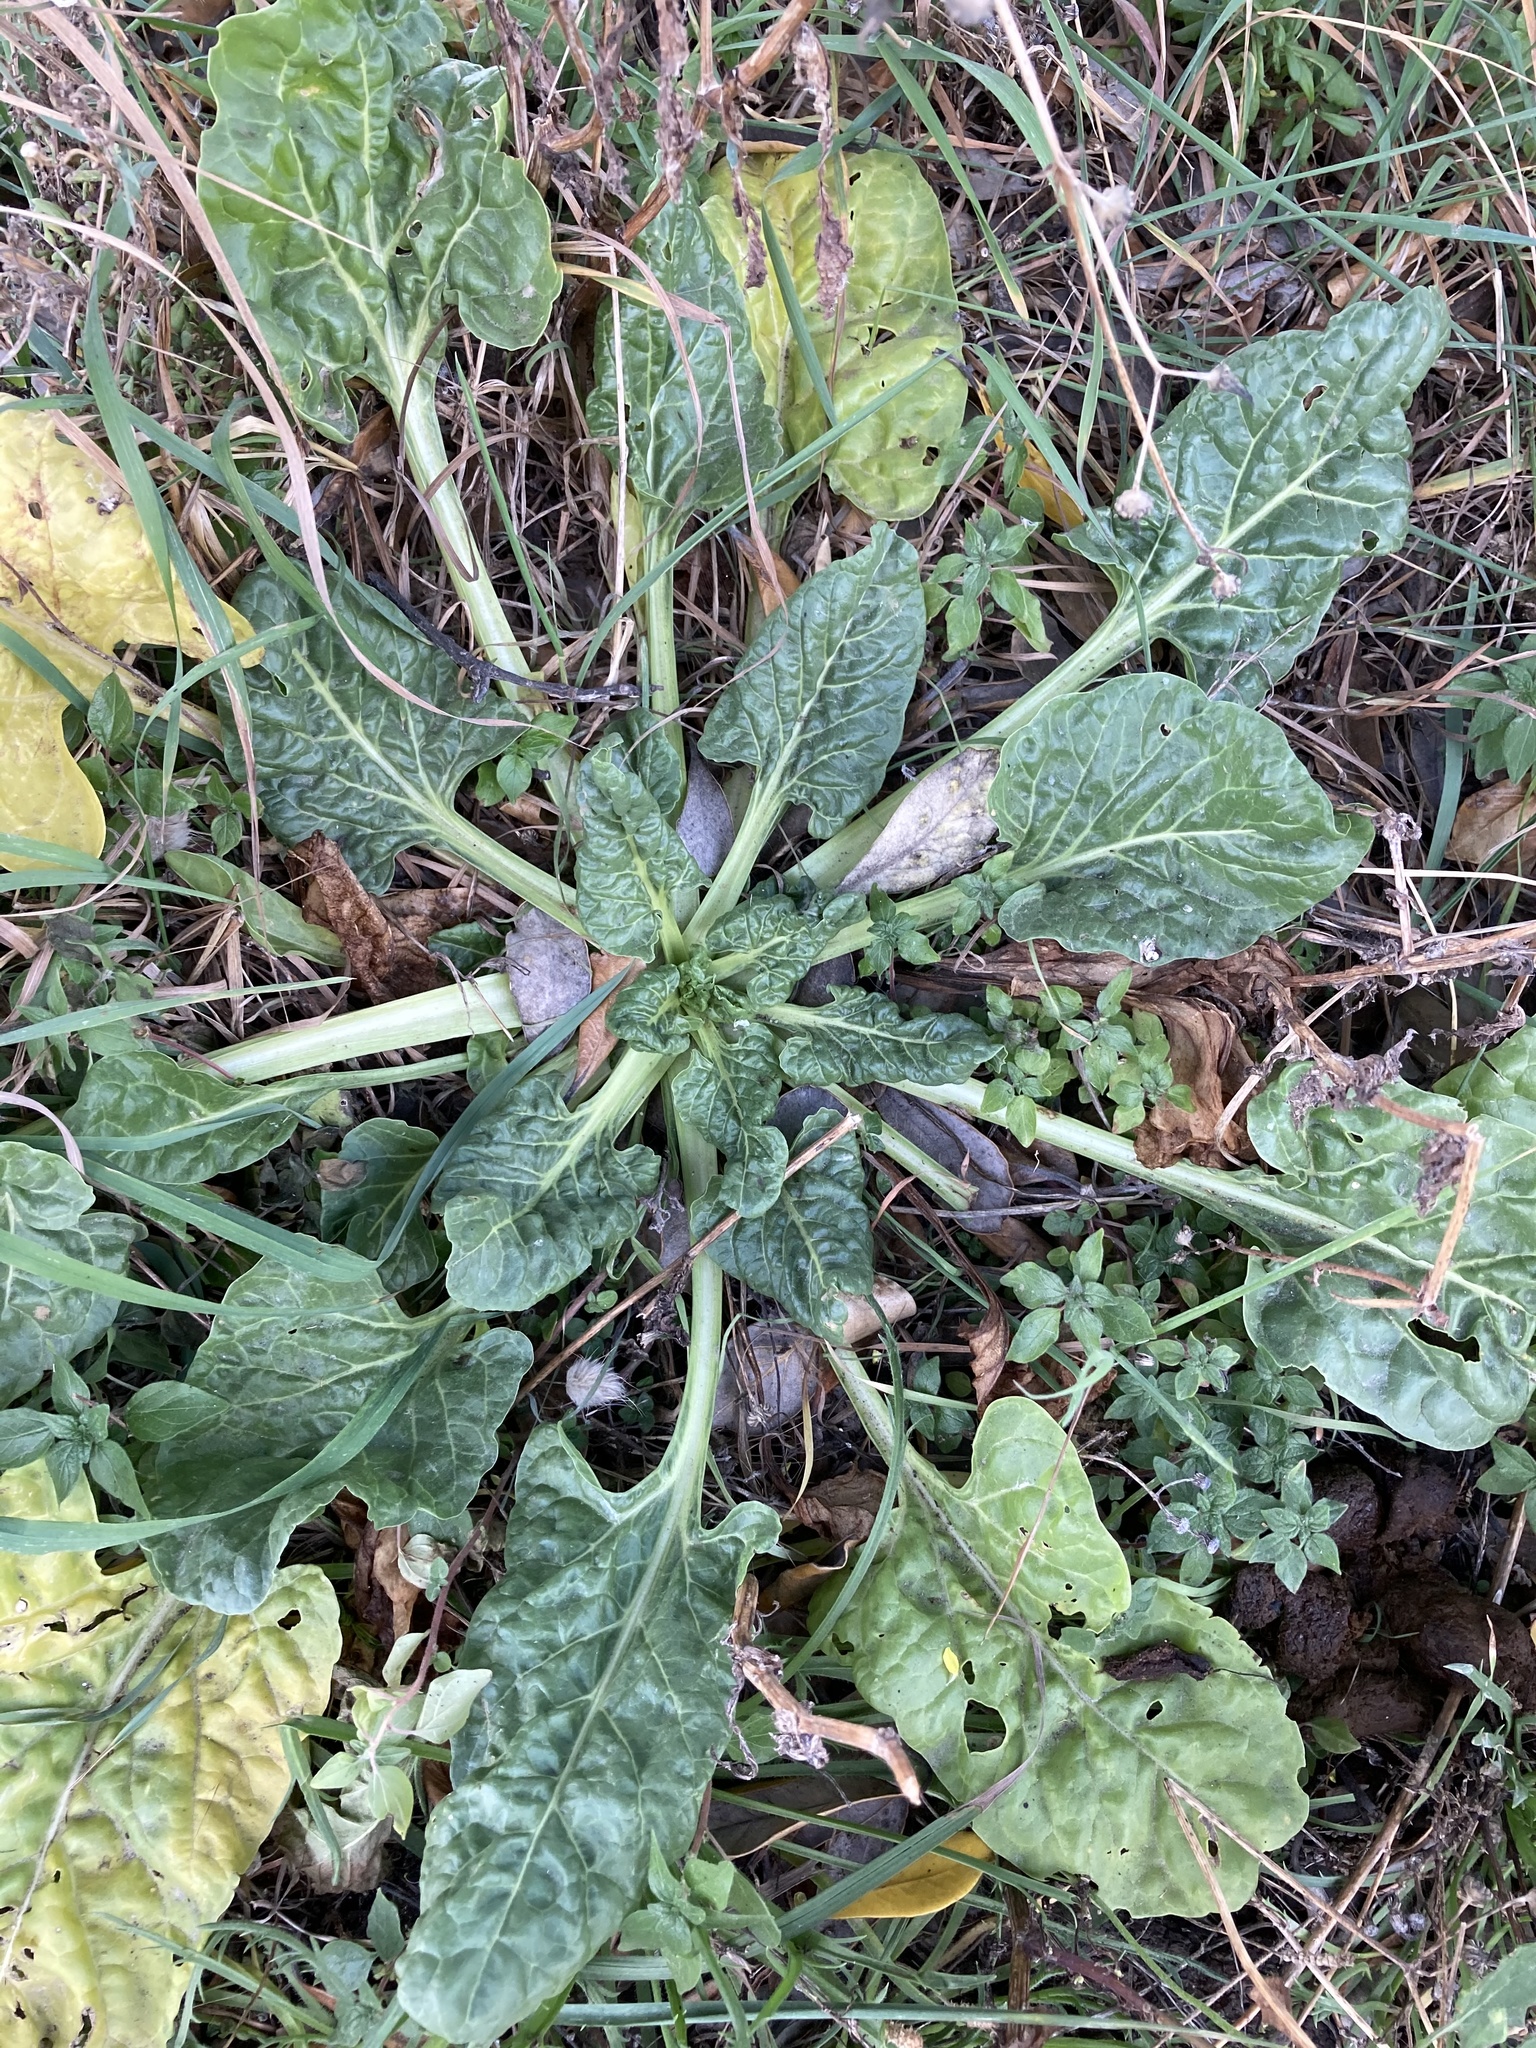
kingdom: Plantae
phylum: Tracheophyta
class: Magnoliopsida
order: Caryophyllales
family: Amaranthaceae
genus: Beta
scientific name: Beta vulgaris
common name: Beet
